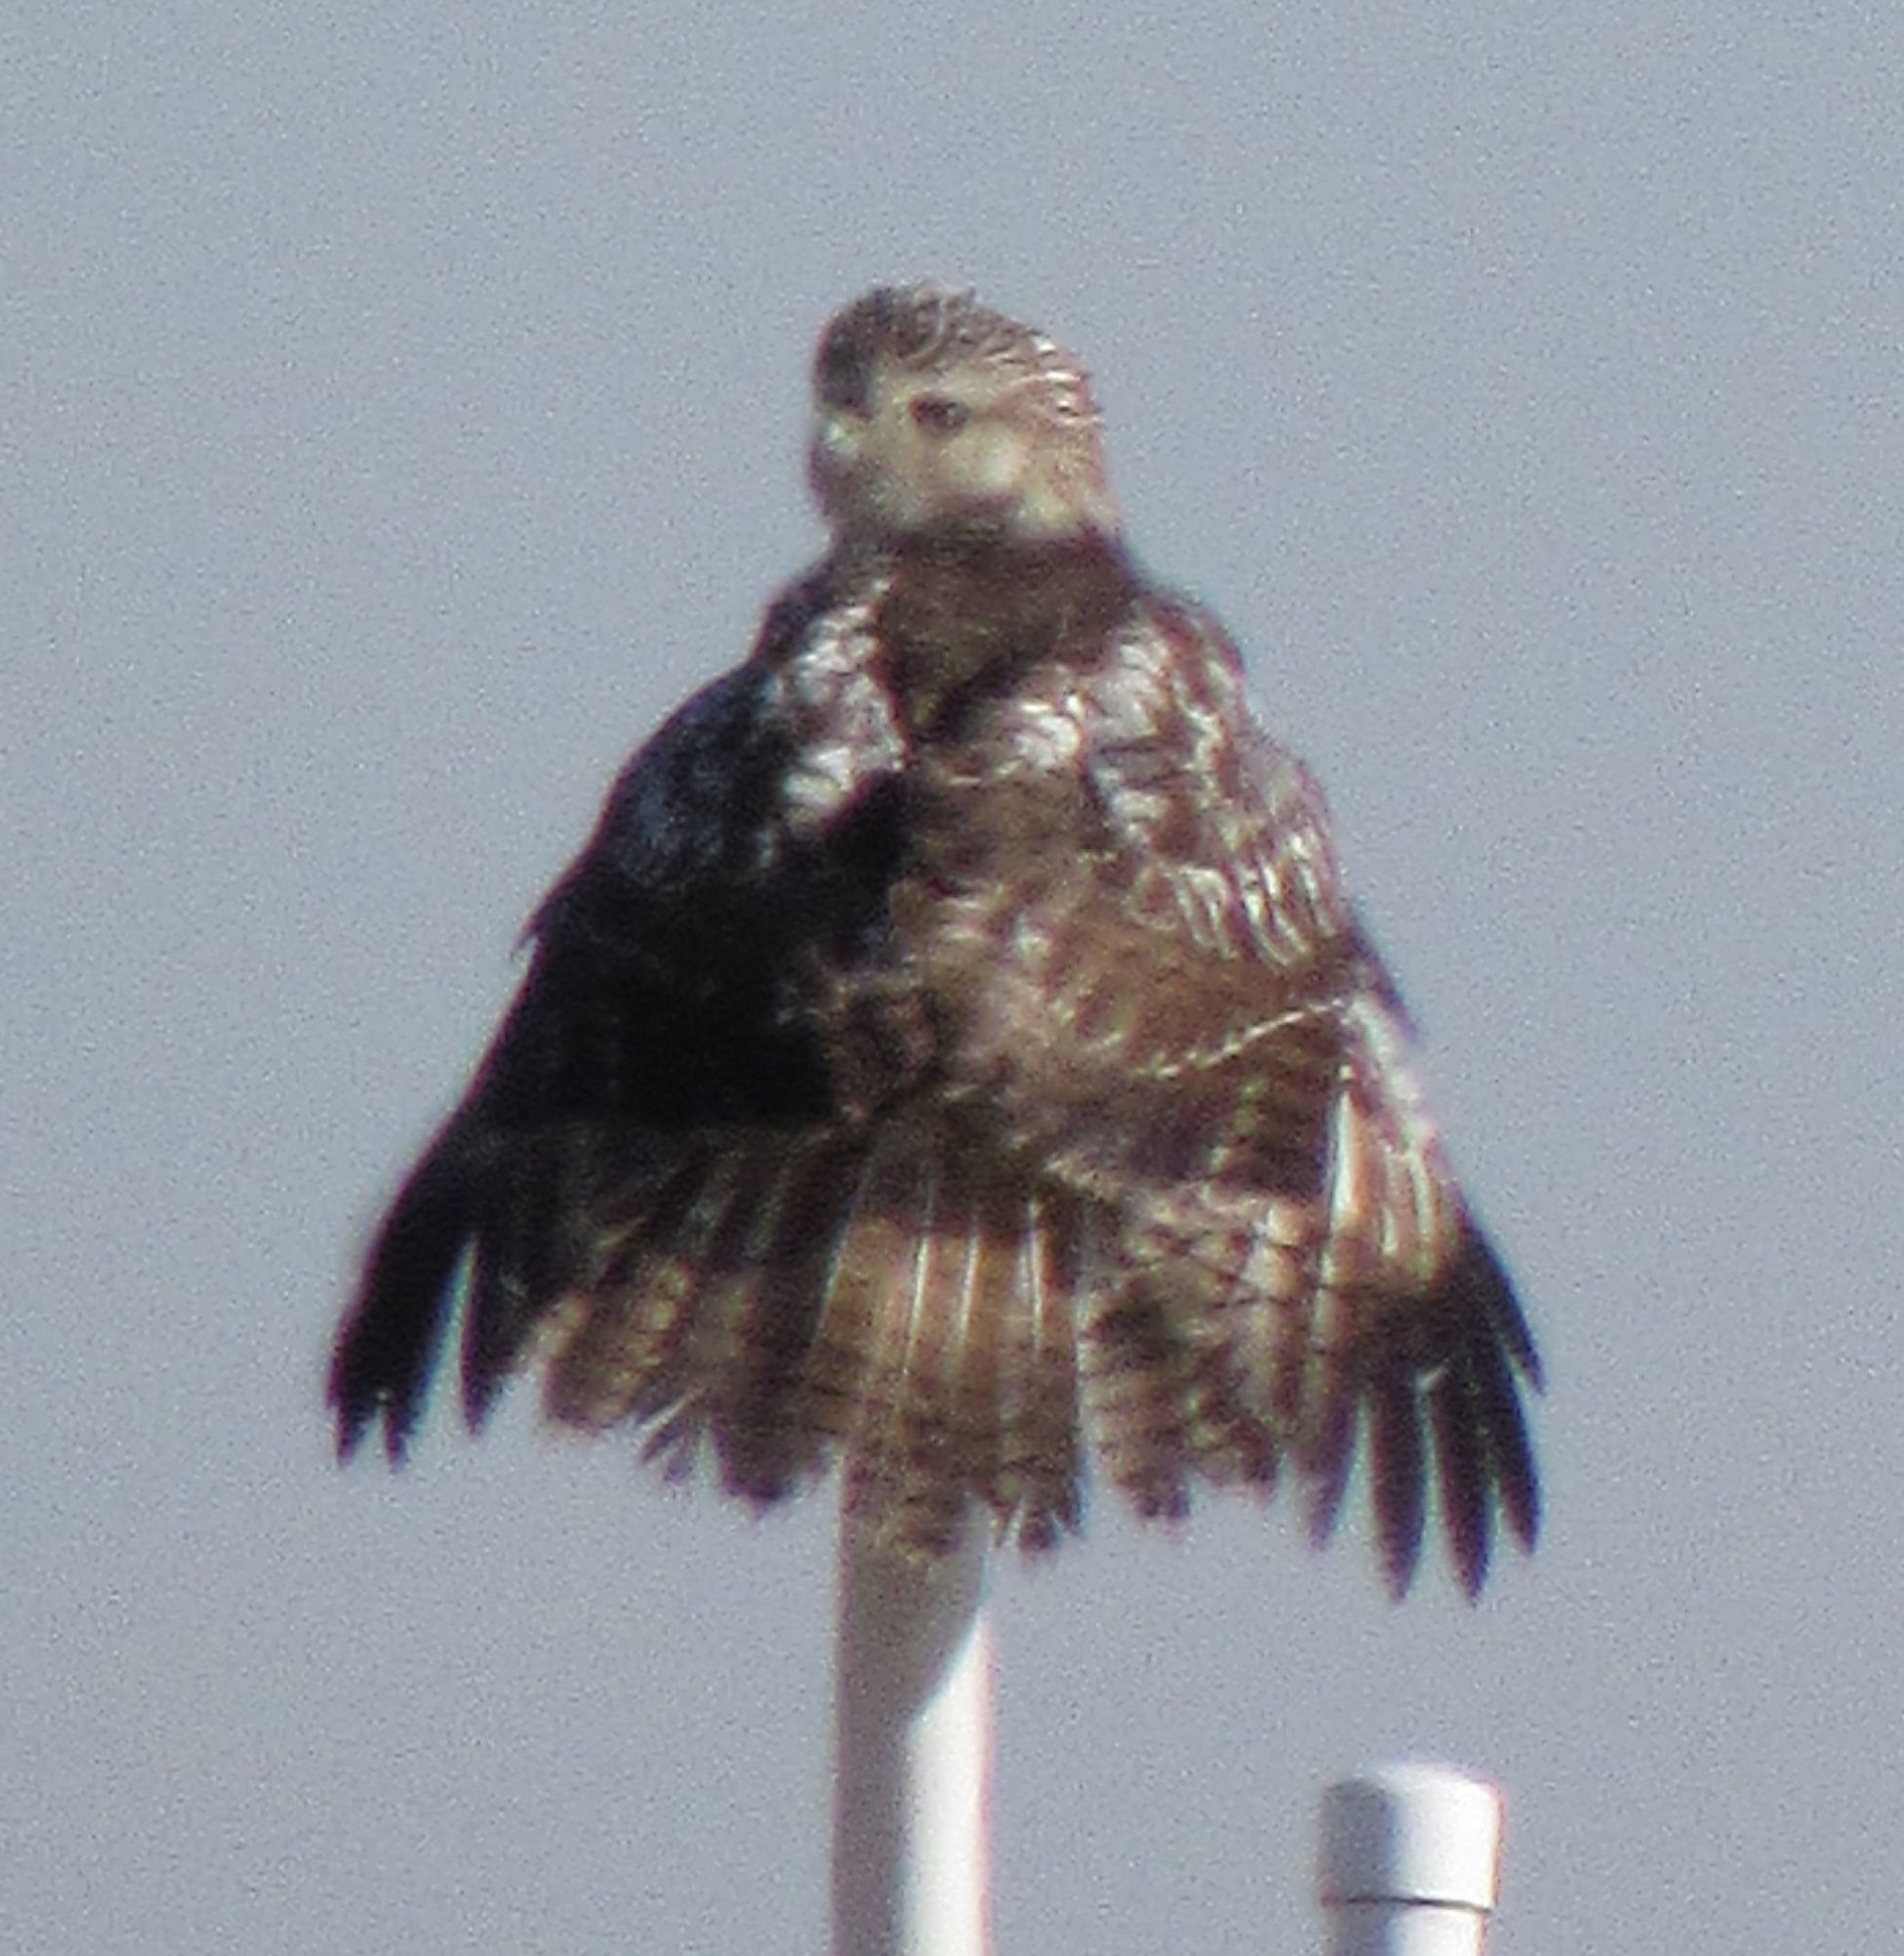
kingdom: Animalia
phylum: Chordata
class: Aves
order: Accipitriformes
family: Accipitridae
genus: Buteo
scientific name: Buteo jamaicensis
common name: Red-tailed hawk
